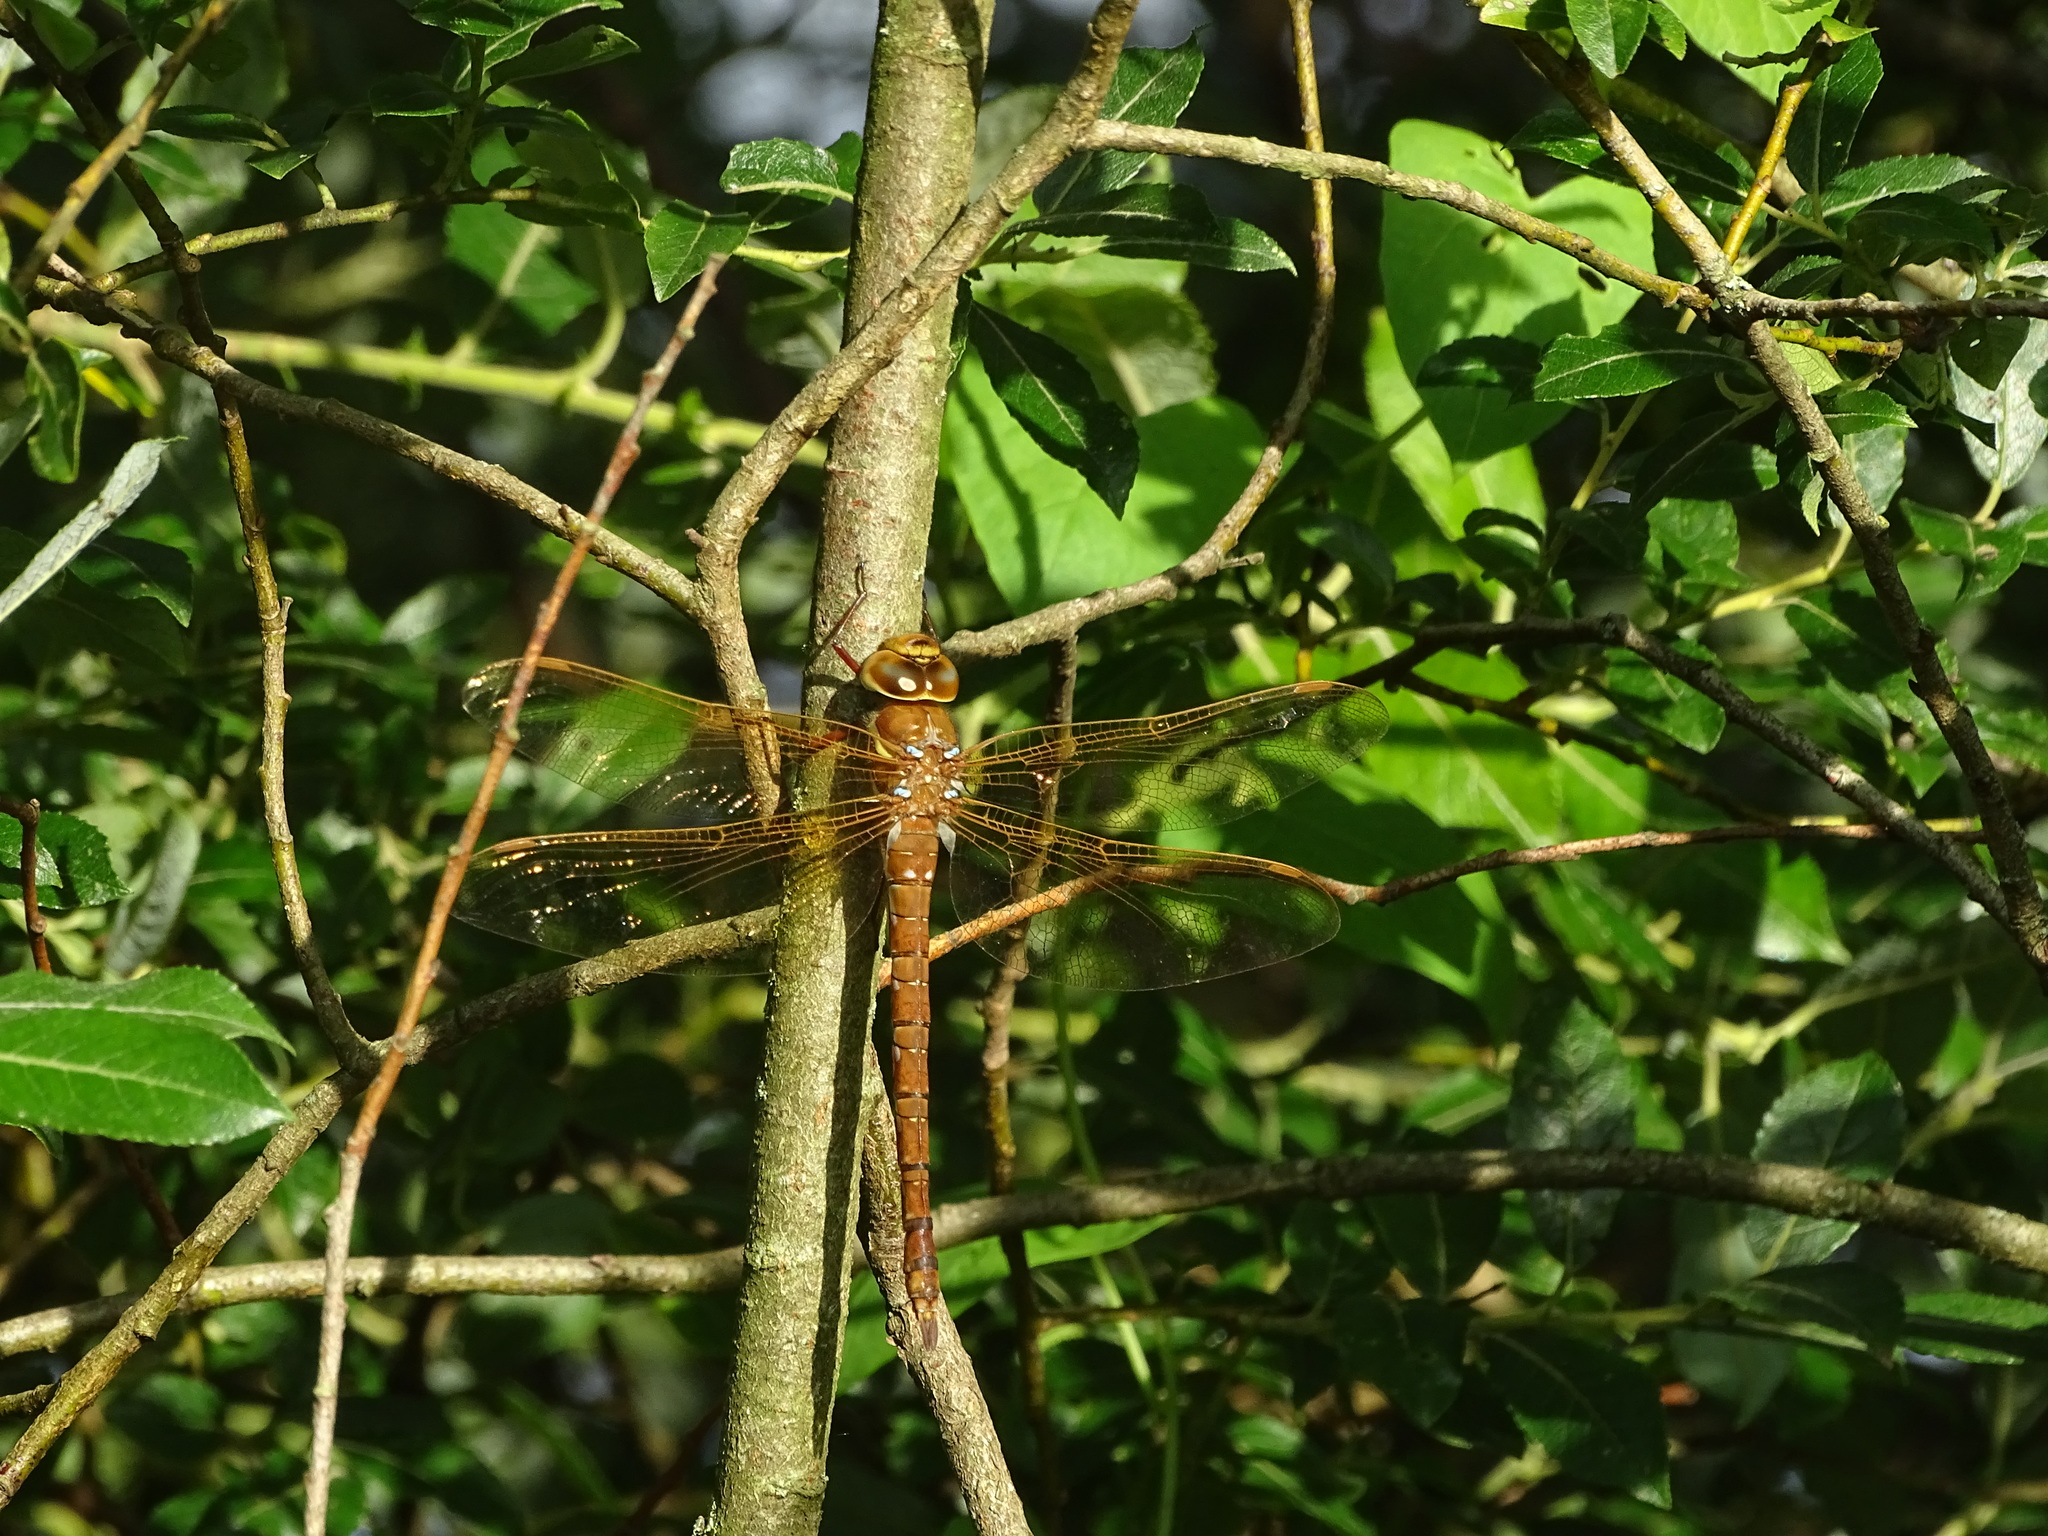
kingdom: Animalia
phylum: Arthropoda
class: Insecta
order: Odonata
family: Aeshnidae
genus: Aeshna
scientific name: Aeshna grandis
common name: Brown hawker
